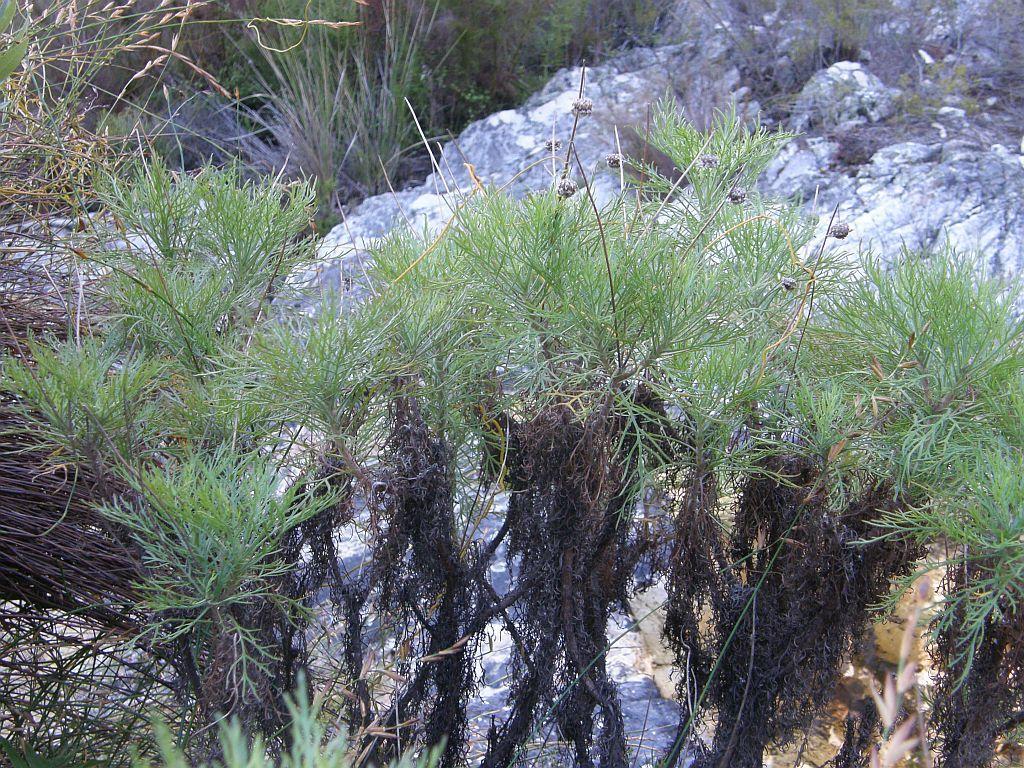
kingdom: Plantae
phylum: Tracheophyta
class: Magnoliopsida
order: Asterales
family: Asteraceae
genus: Ursinia
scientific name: Ursinia paleacea
